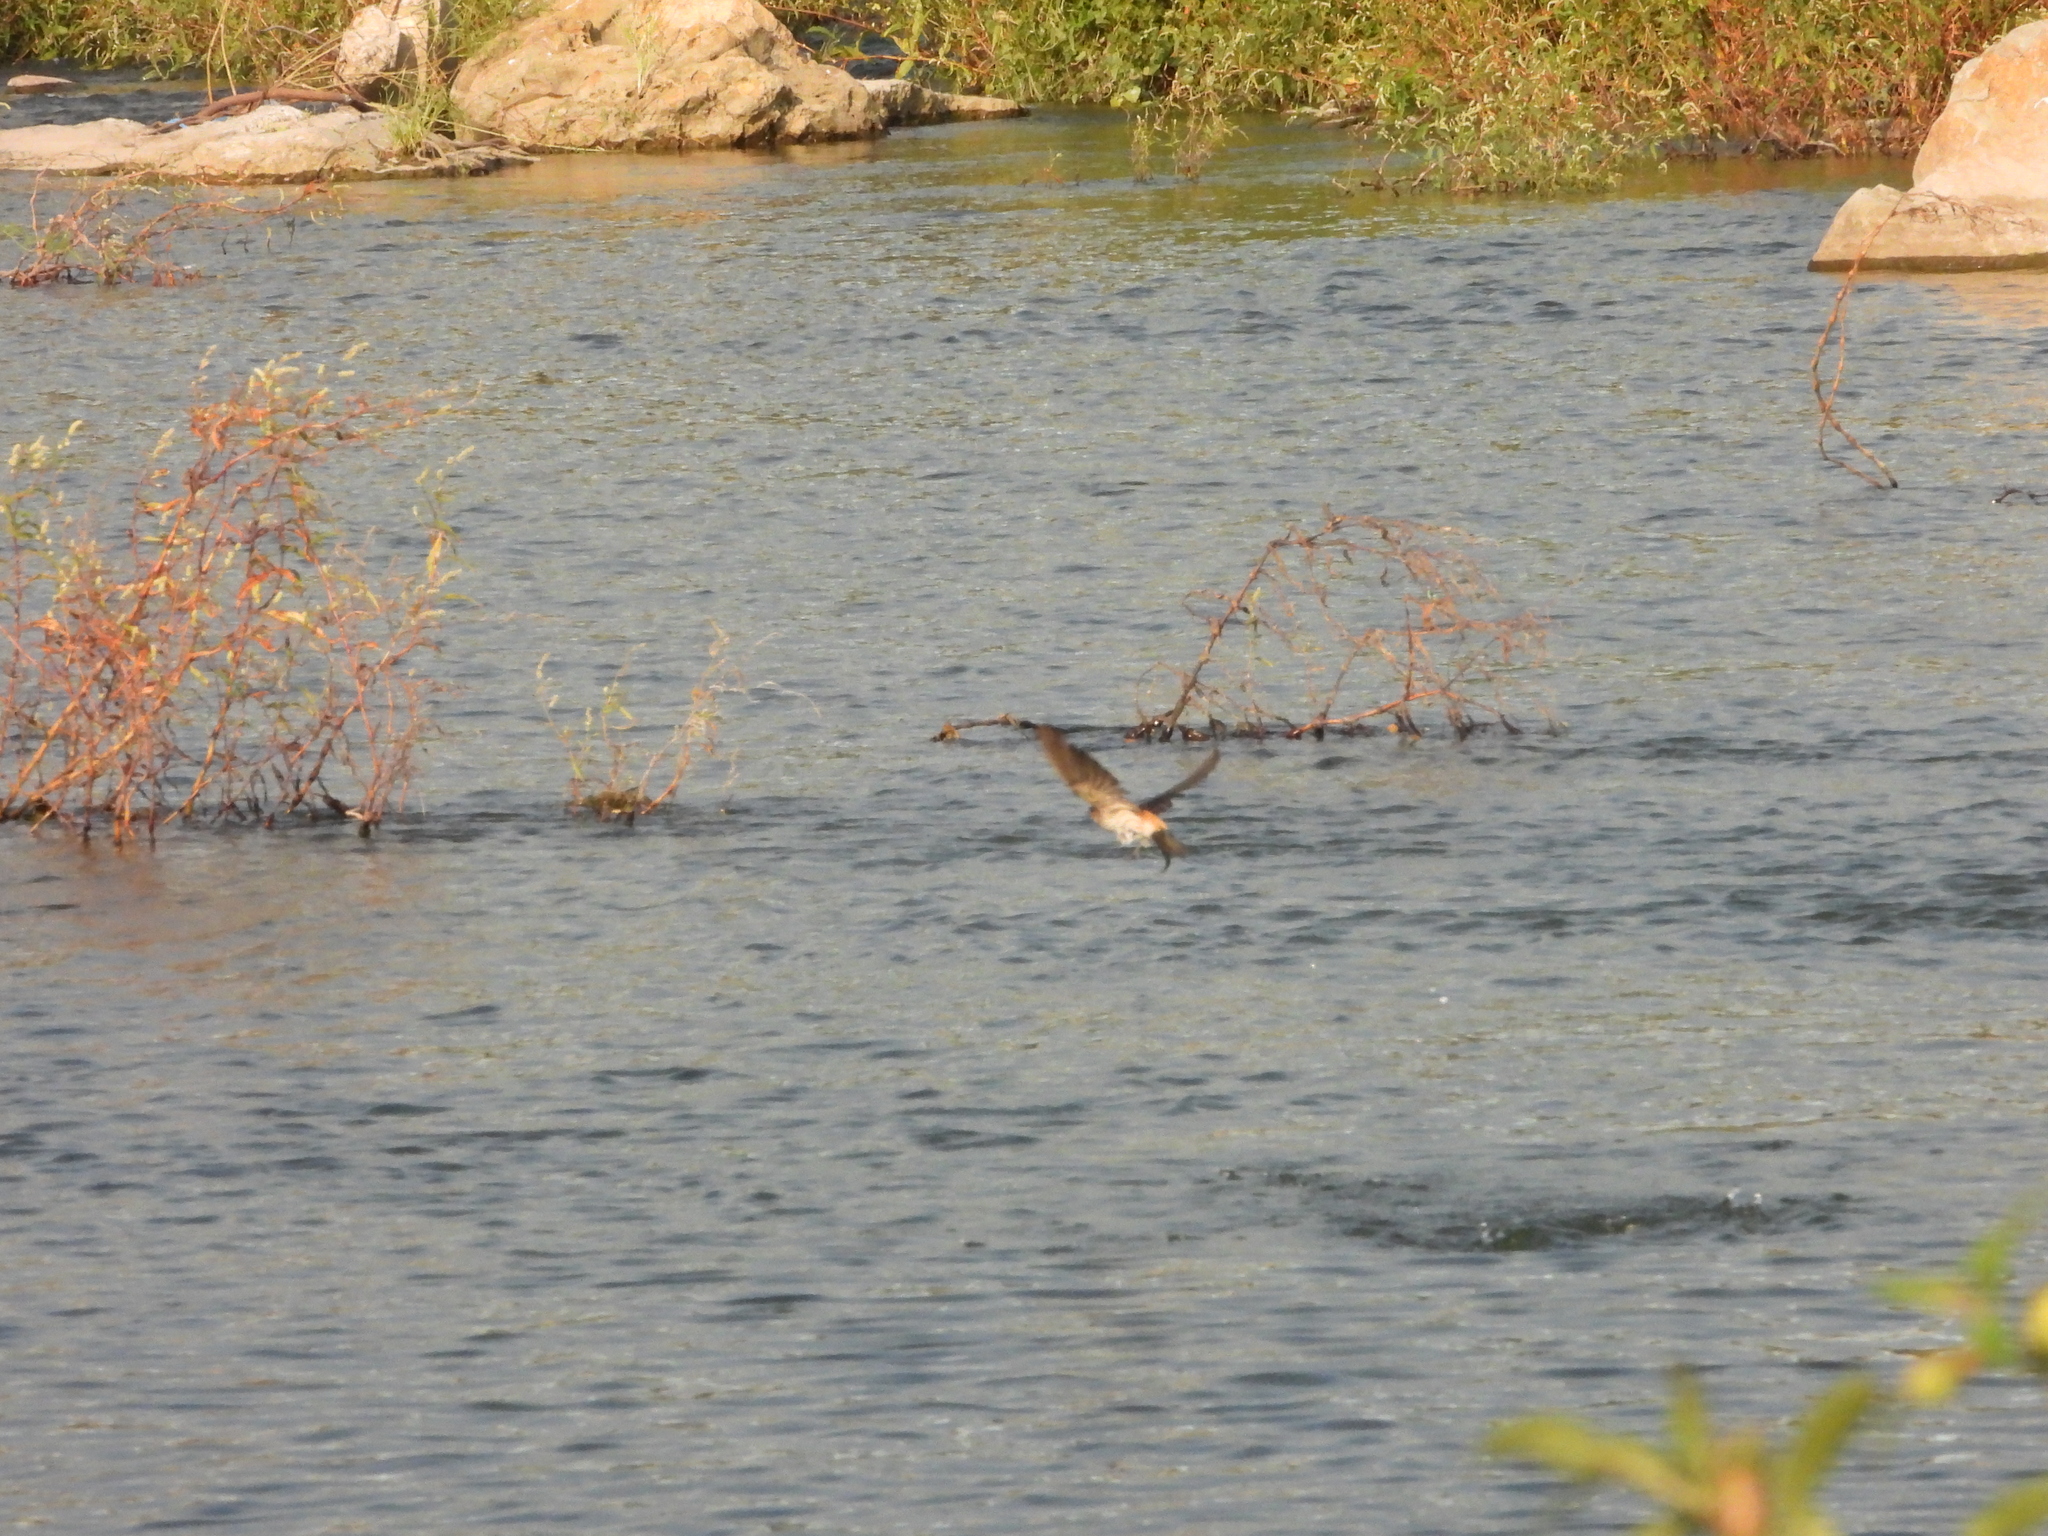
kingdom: Animalia
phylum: Chordata
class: Aves
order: Passeriformes
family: Hirundinidae
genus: Cecropis
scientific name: Cecropis striolata
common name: Striated swallow
